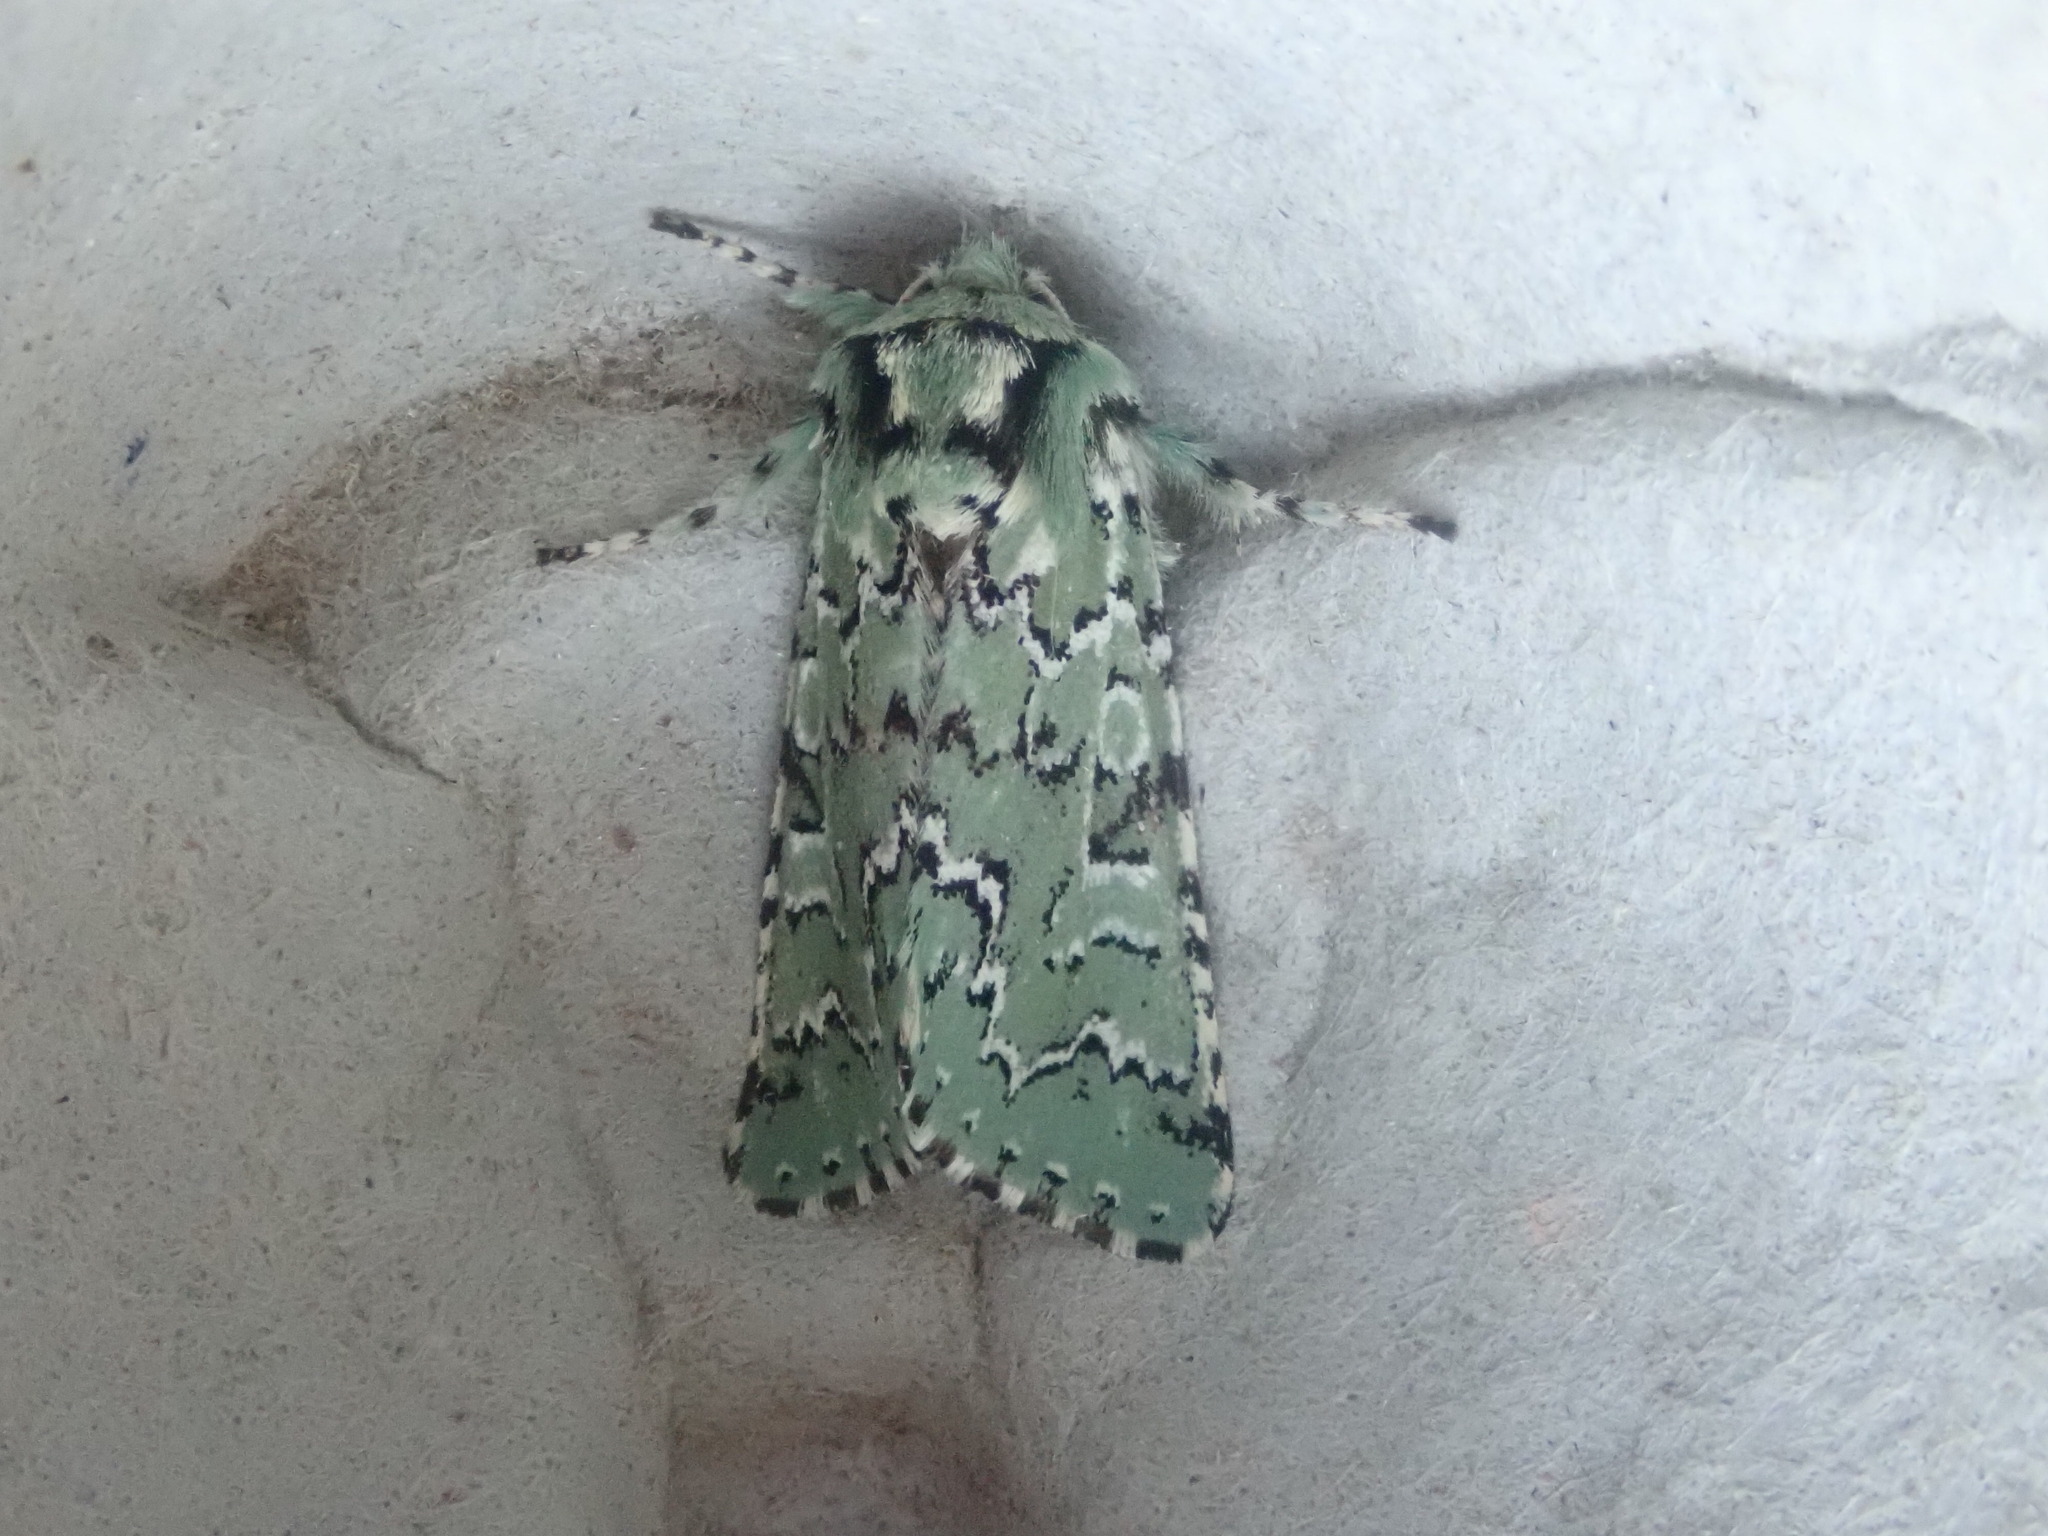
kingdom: Animalia
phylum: Arthropoda
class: Insecta
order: Lepidoptera
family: Noctuidae
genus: Feralia
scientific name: Feralia jocosa
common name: Joker
